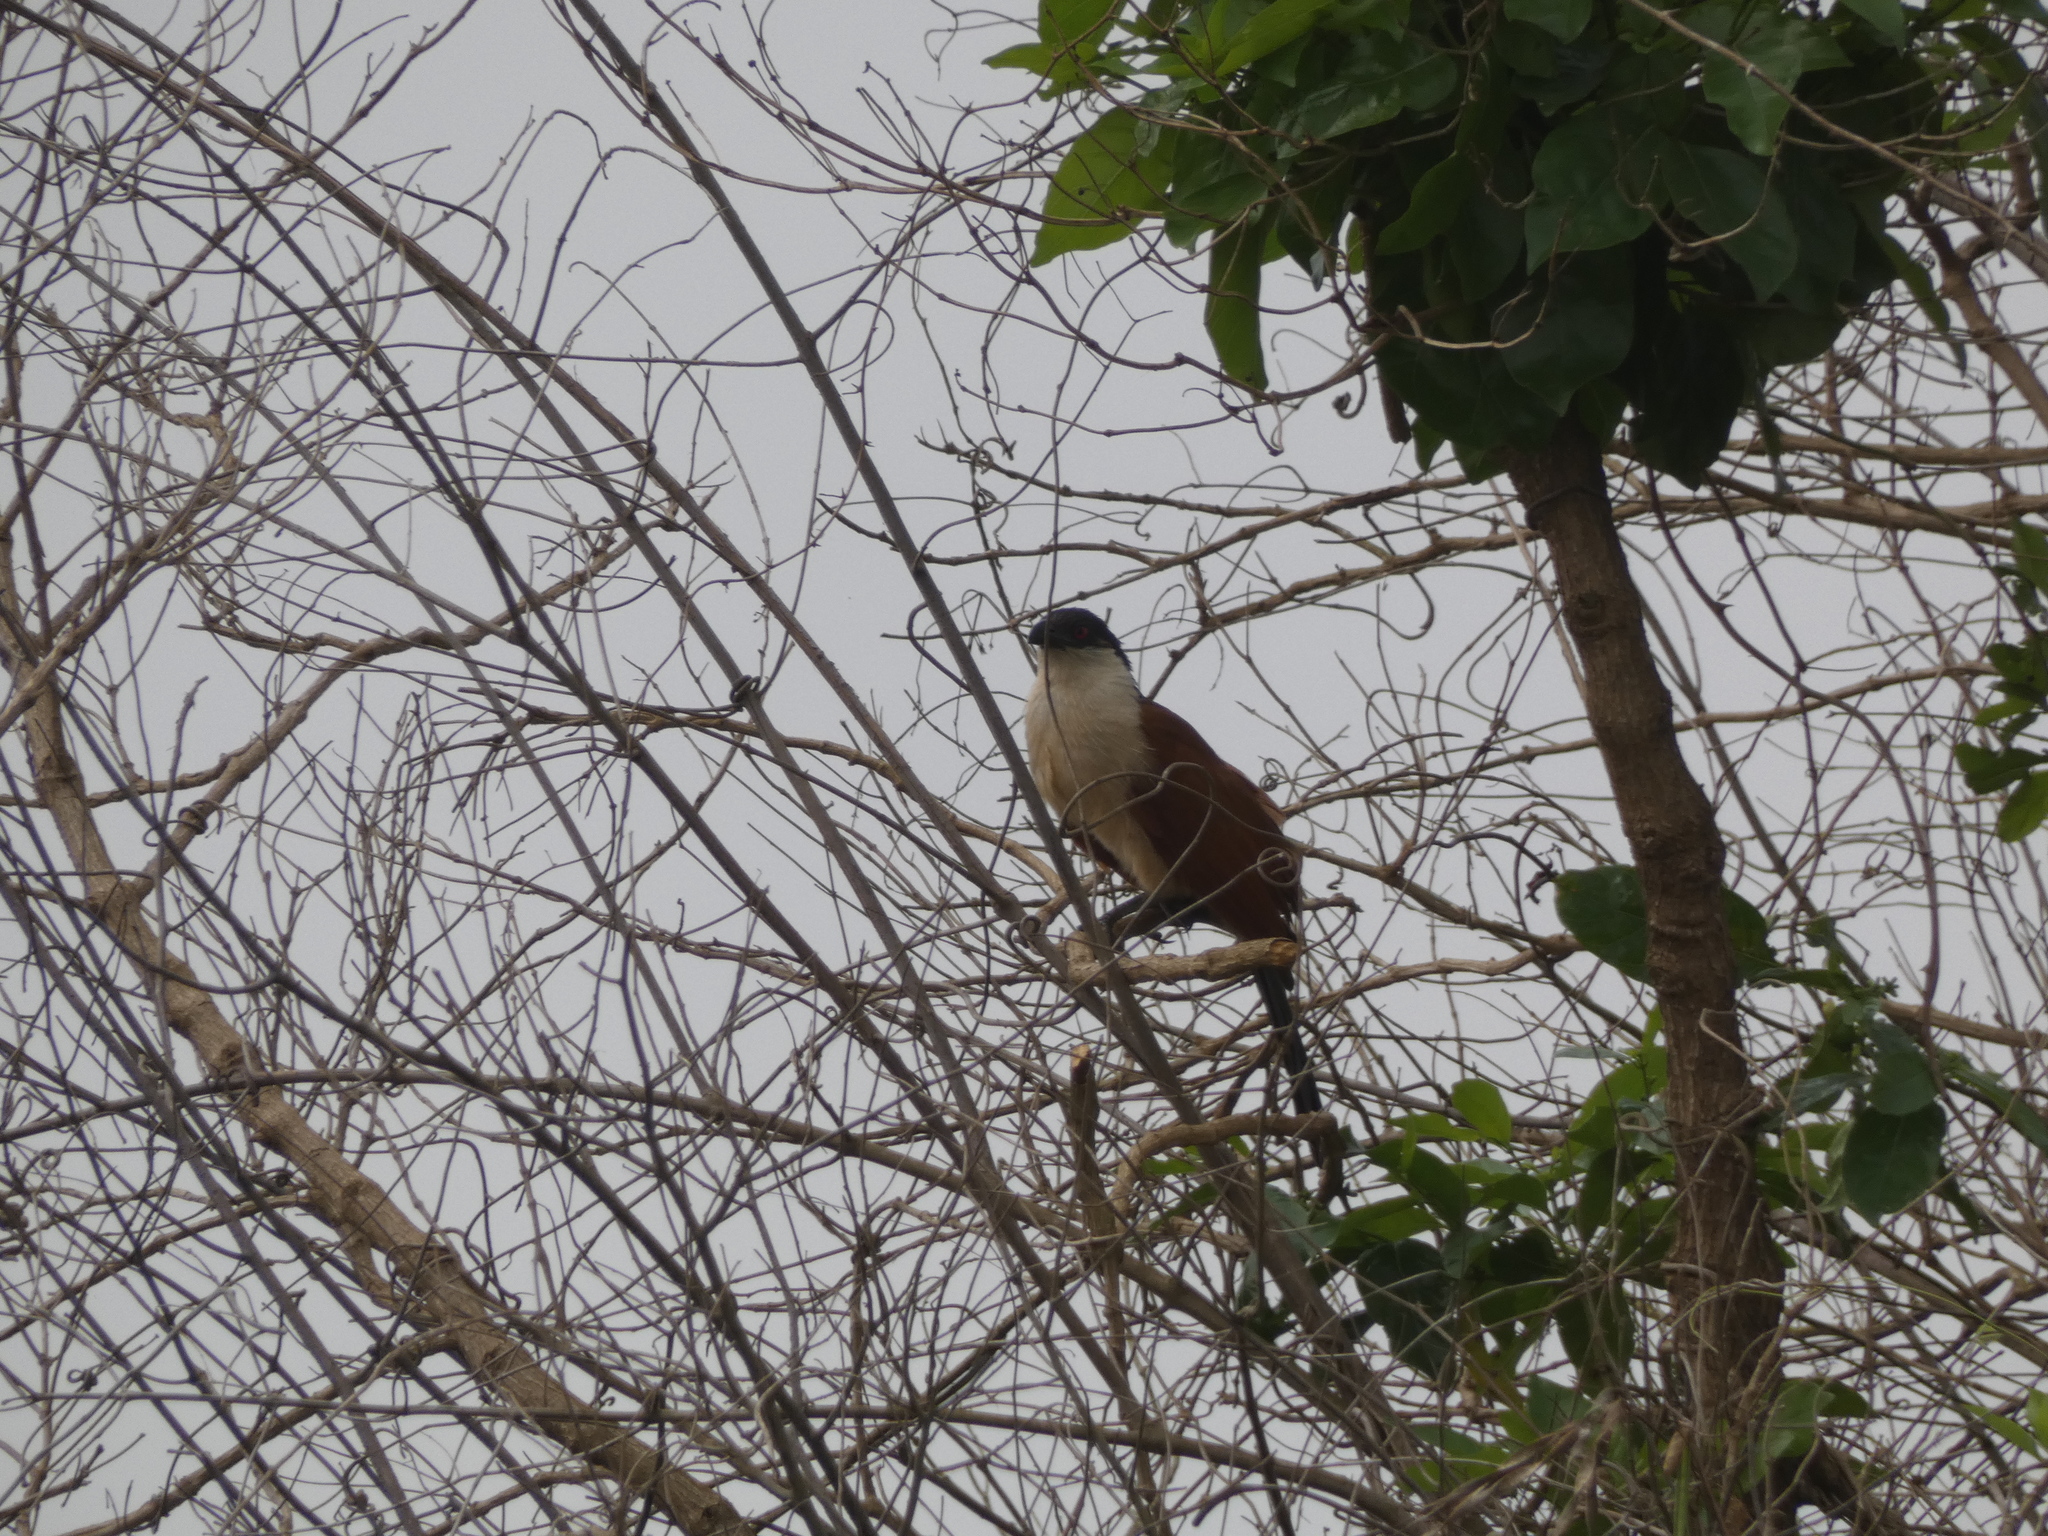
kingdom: Animalia
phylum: Chordata
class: Aves
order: Cuculiformes
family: Cuculidae
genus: Centropus
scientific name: Centropus senegalensis
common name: Senegal coucal
